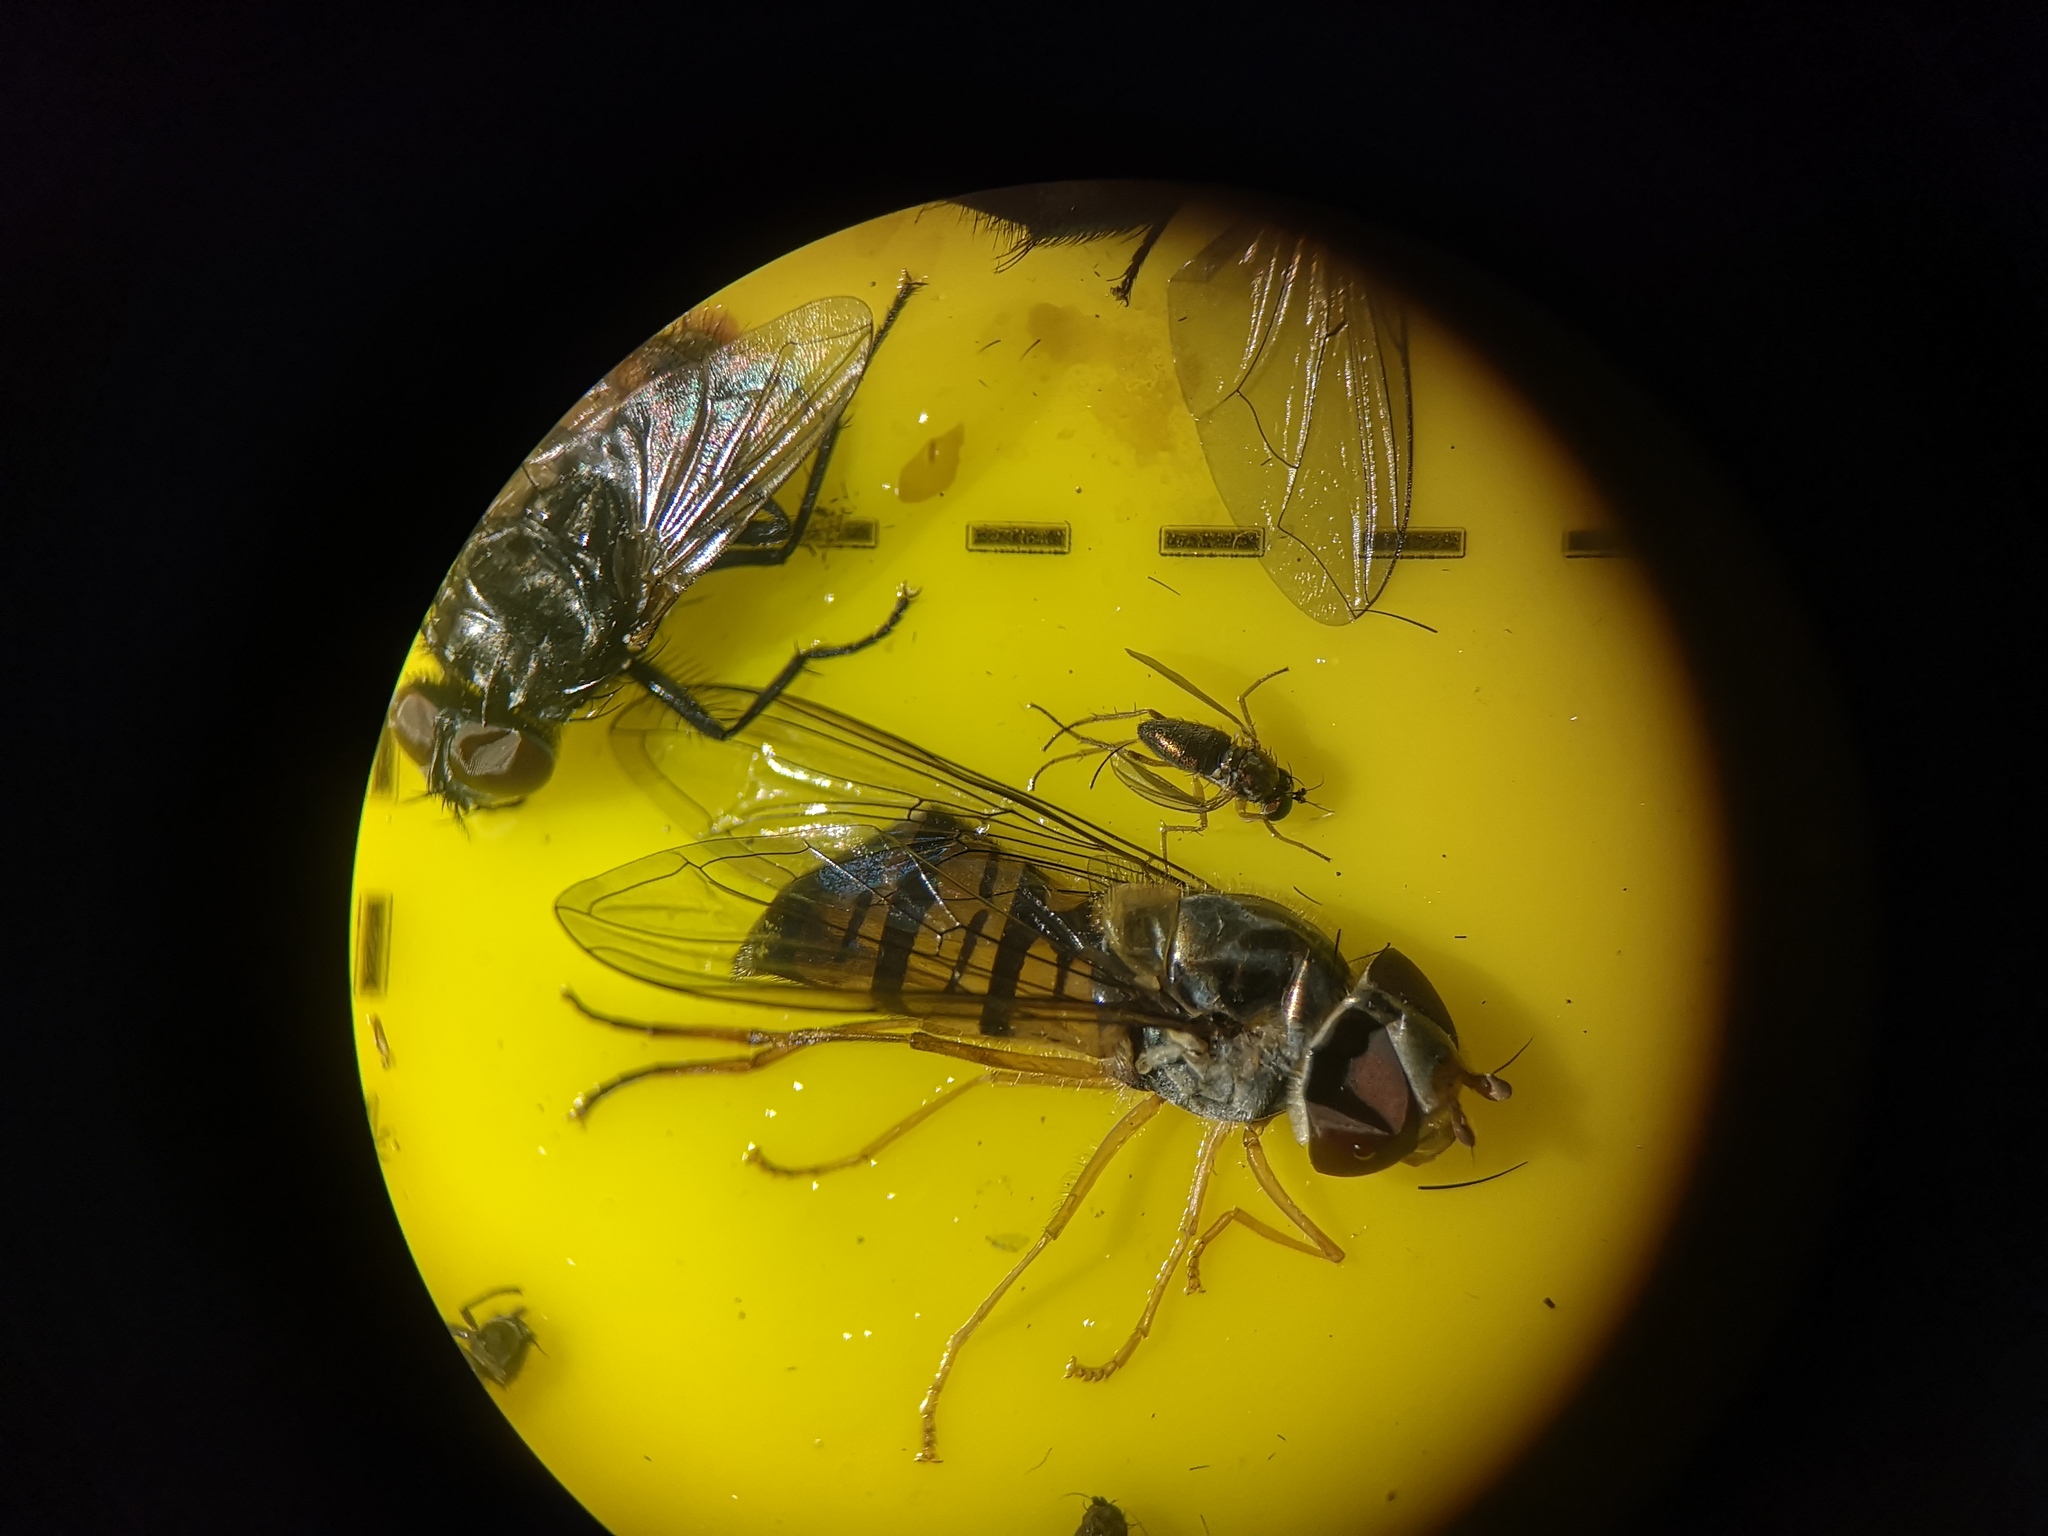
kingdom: Animalia
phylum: Arthropoda
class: Insecta
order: Diptera
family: Syrphidae
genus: Episyrphus
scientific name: Episyrphus balteatus
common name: Marmalade hoverfly
